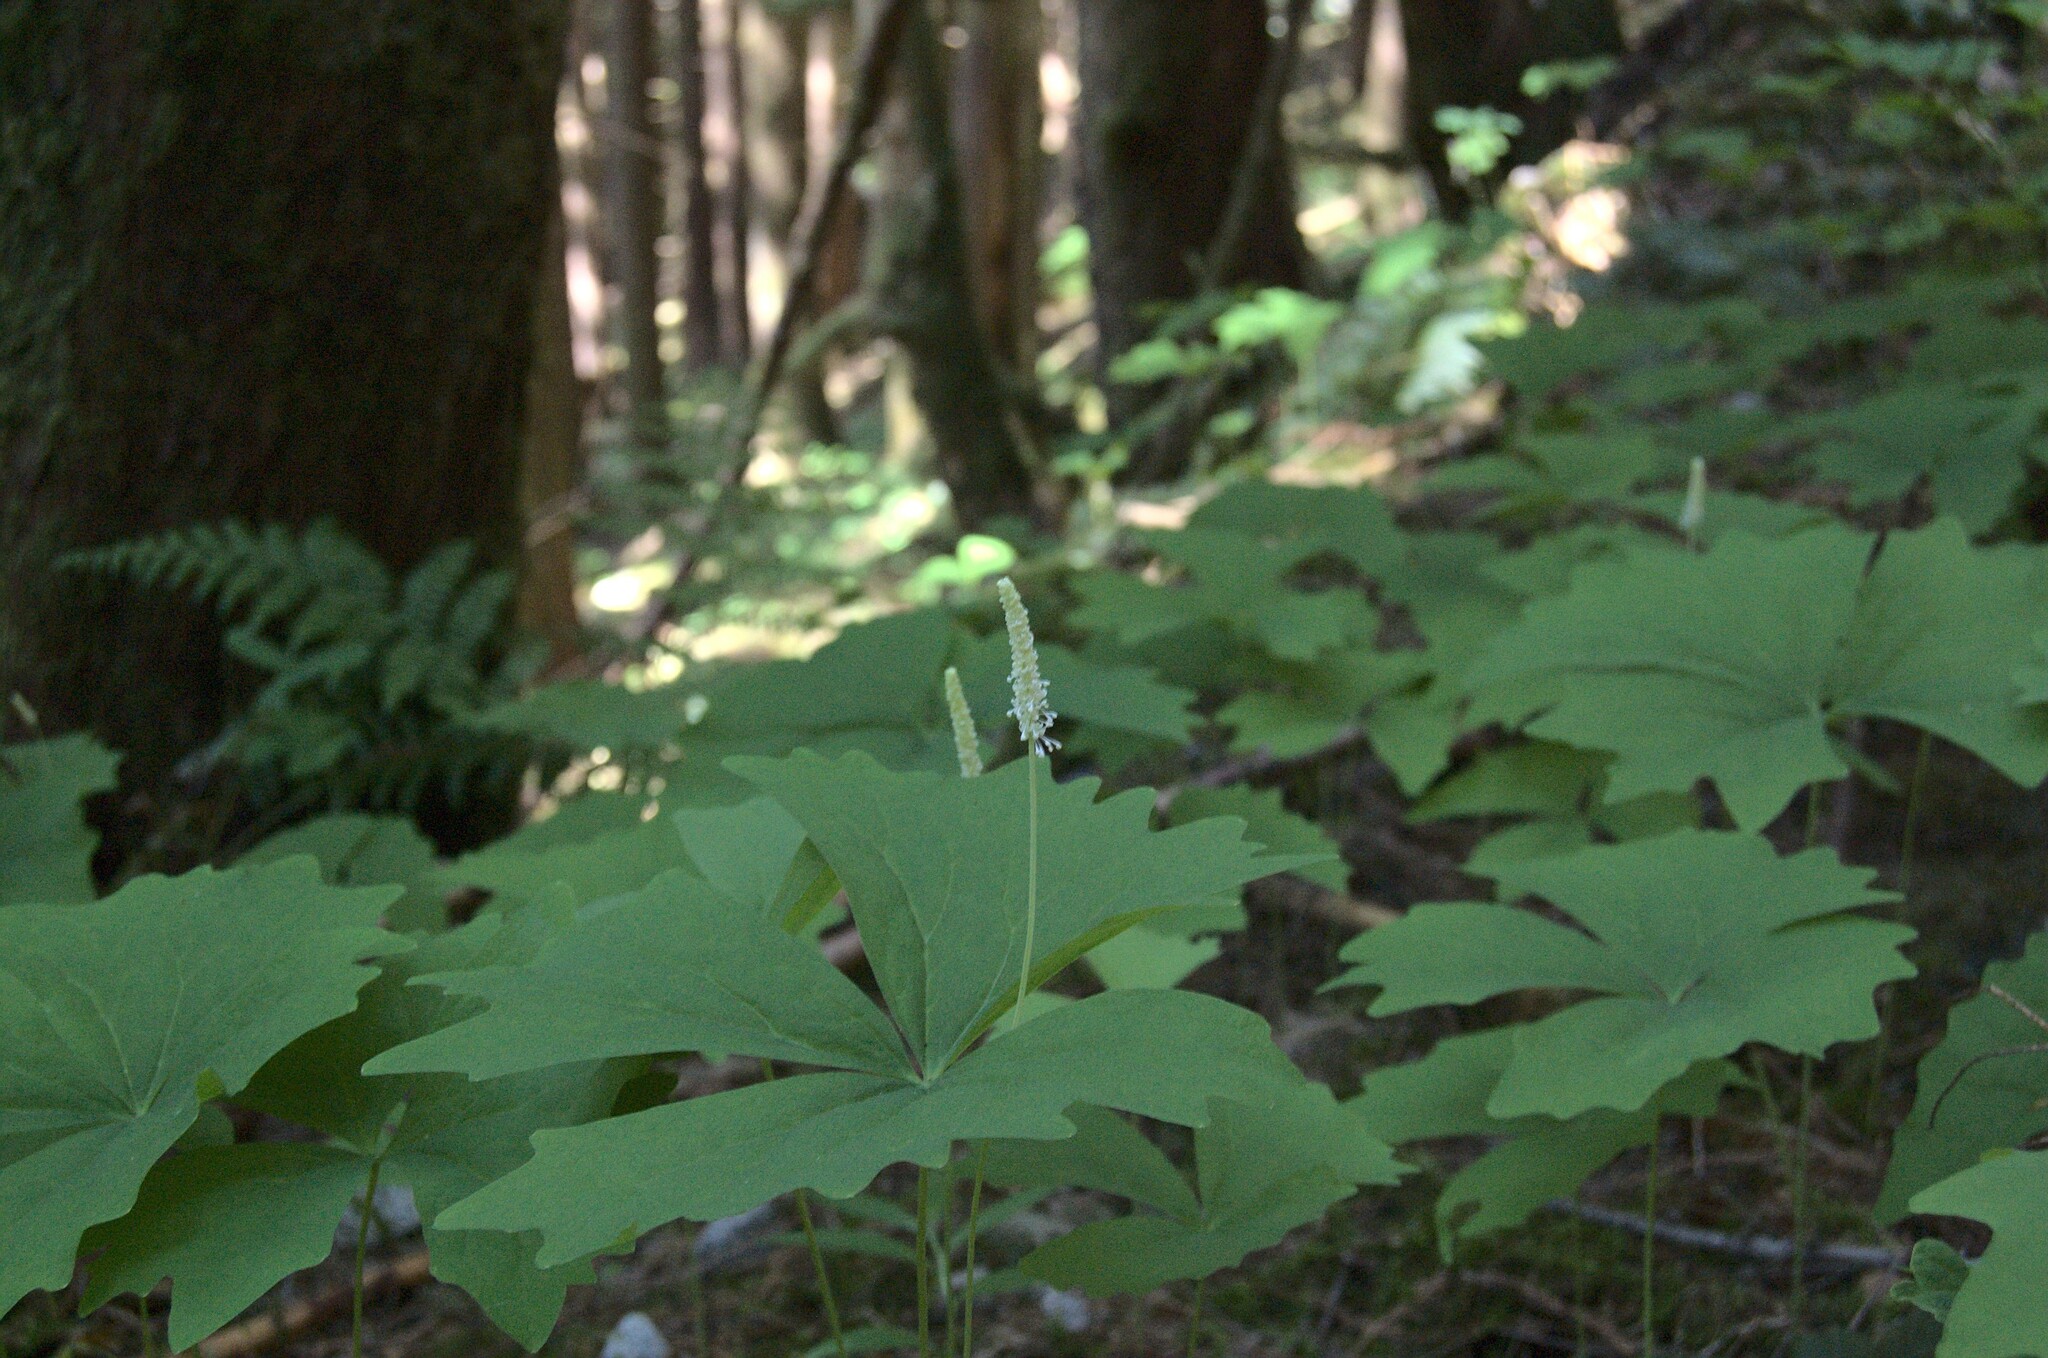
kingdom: Plantae
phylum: Tracheophyta
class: Magnoliopsida
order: Ranunculales
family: Berberidaceae
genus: Achlys
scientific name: Achlys triphylla
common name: Vanilla-leaf
